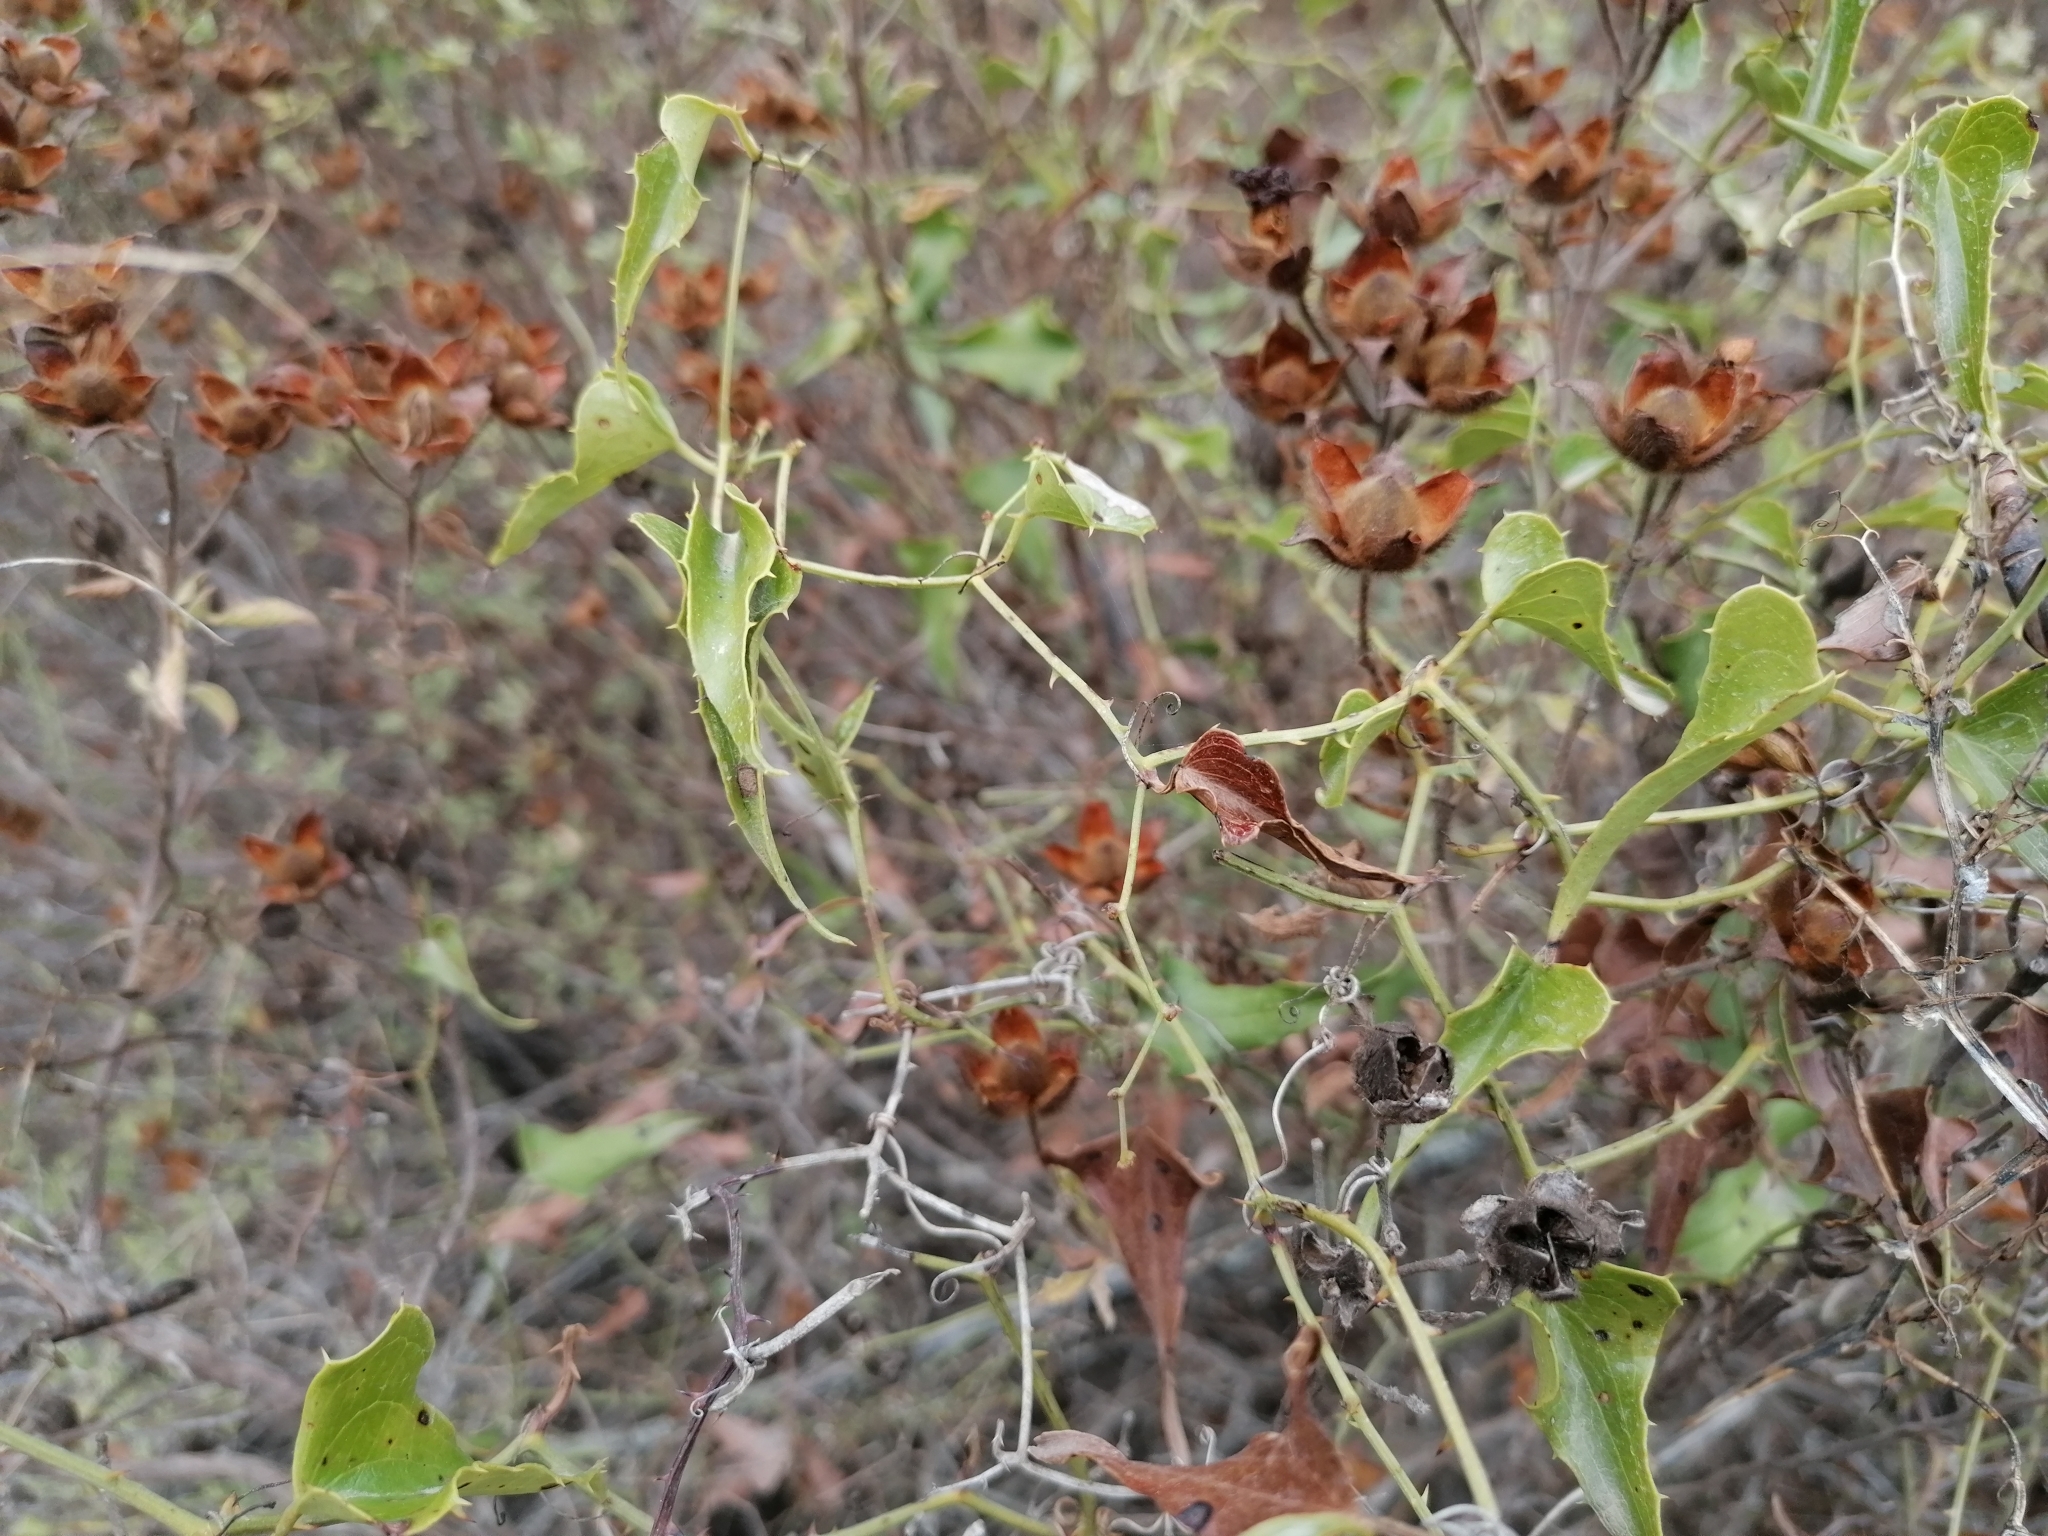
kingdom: Plantae
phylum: Tracheophyta
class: Liliopsida
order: Liliales
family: Smilacaceae
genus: Smilax
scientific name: Smilax aspera
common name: Common smilax
